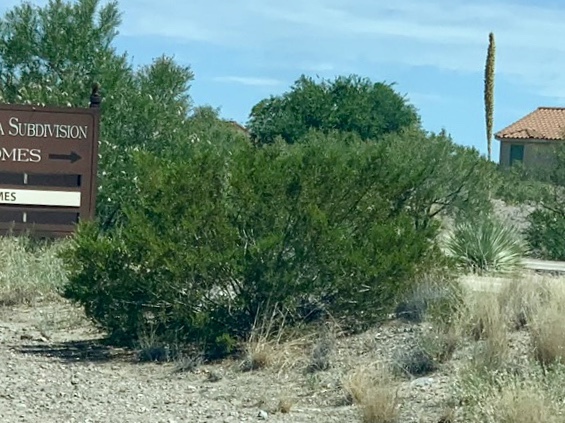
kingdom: Plantae
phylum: Tracheophyta
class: Magnoliopsida
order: Zygophyllales
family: Zygophyllaceae
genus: Larrea
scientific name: Larrea tridentata
